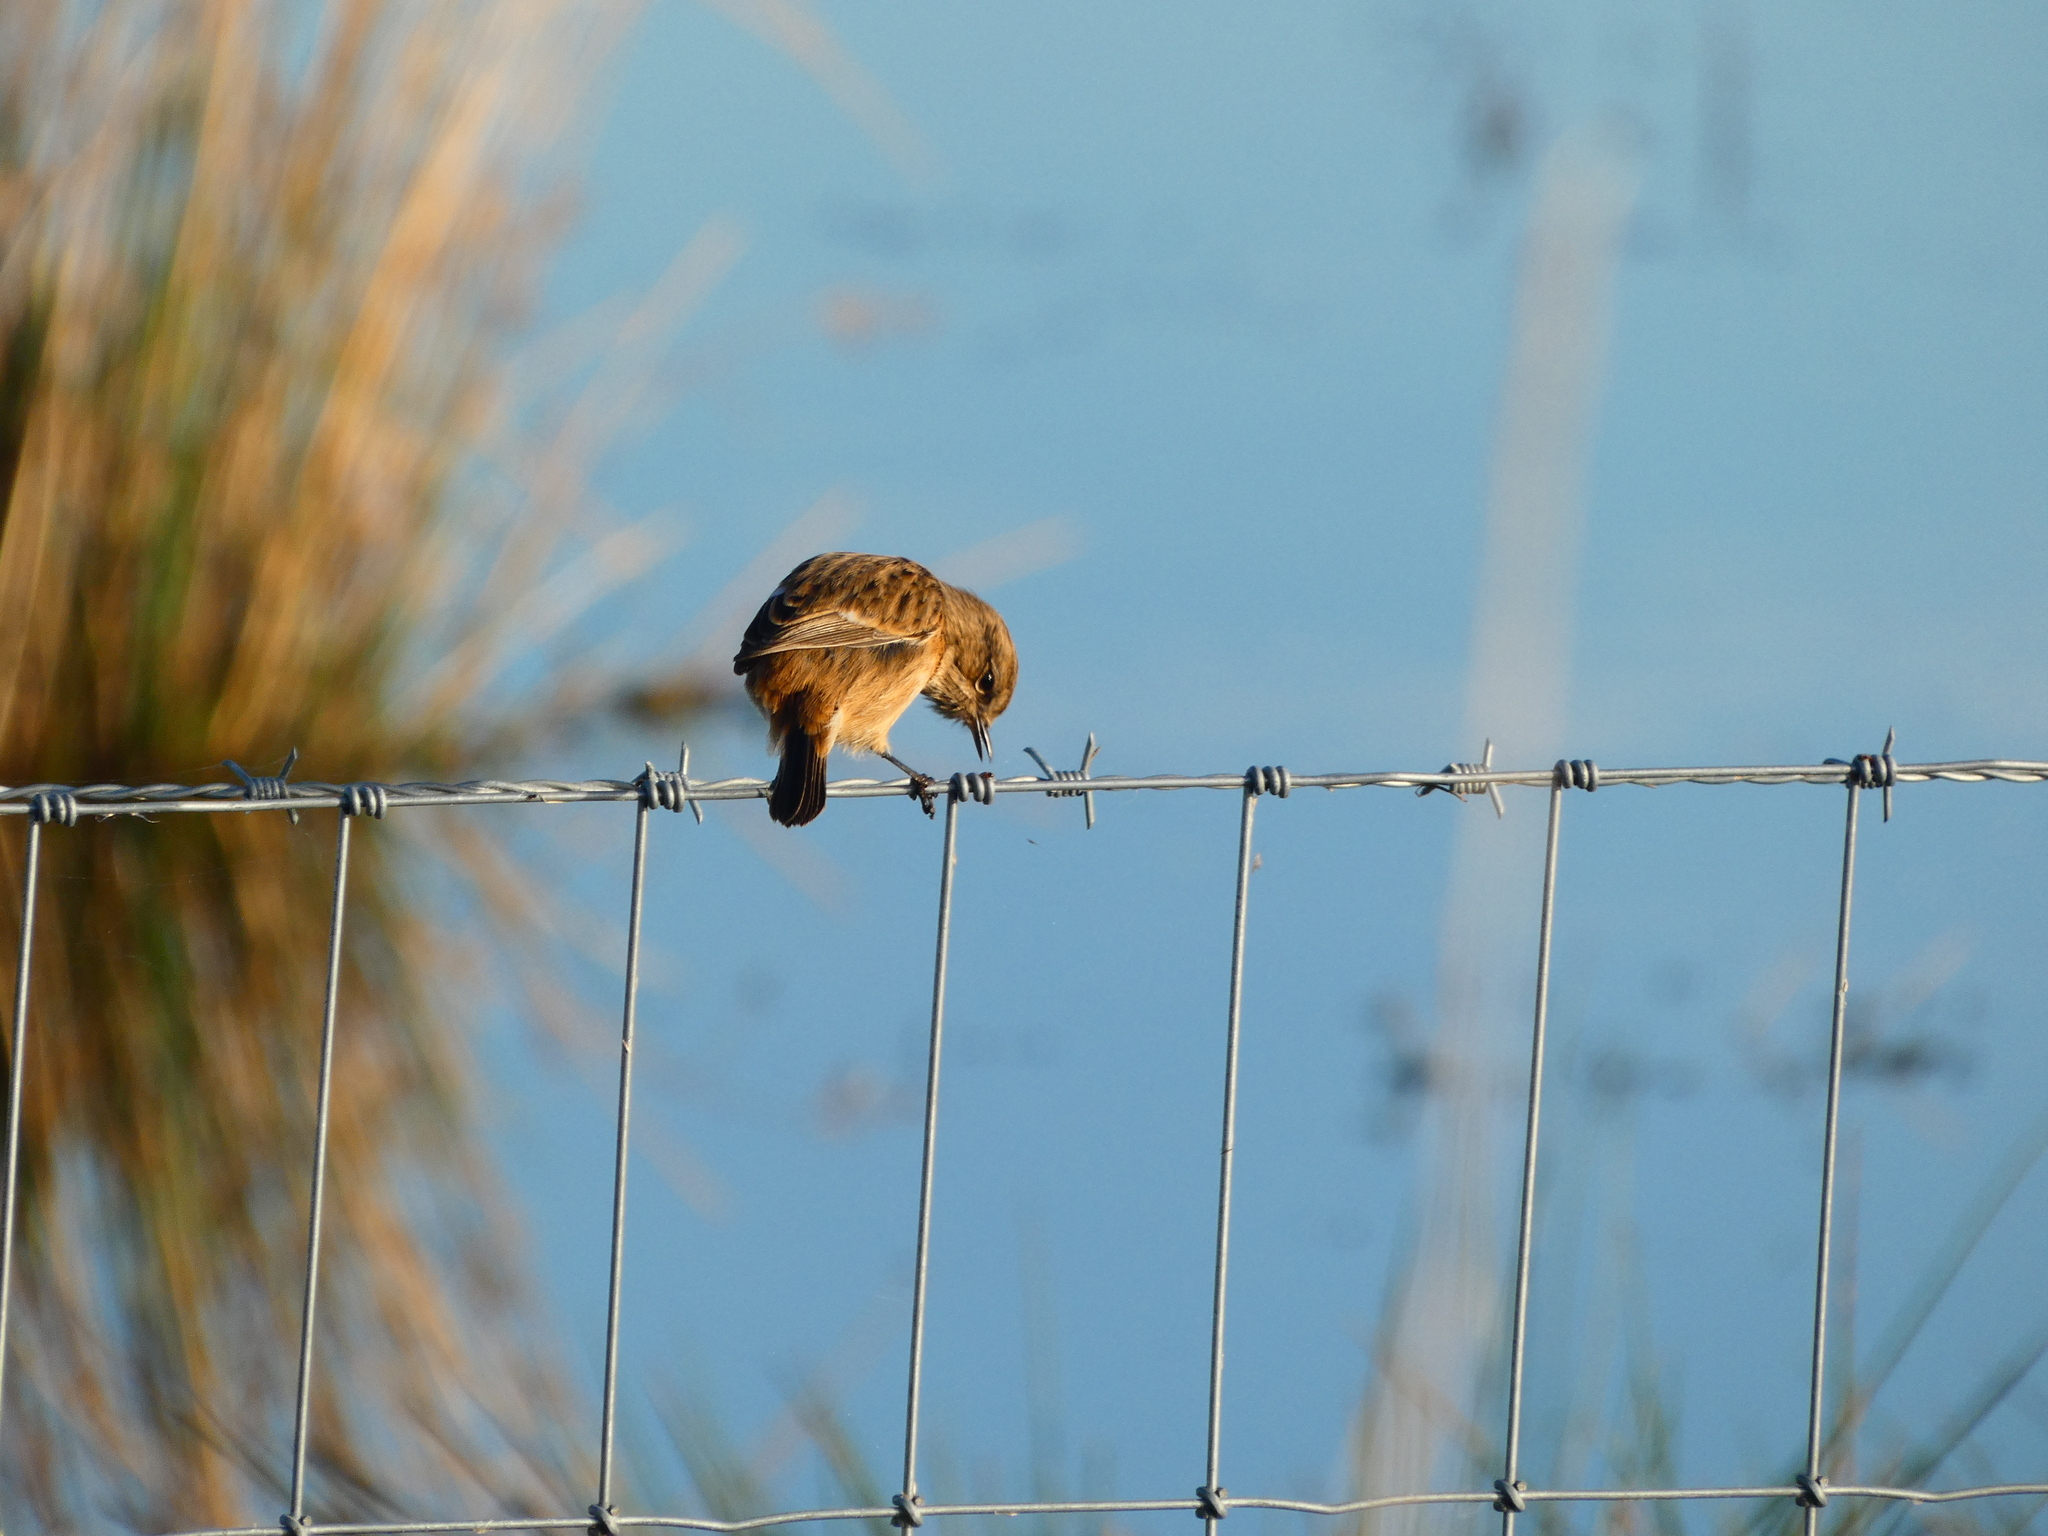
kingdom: Animalia
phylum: Chordata
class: Aves
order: Passeriformes
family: Muscicapidae
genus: Saxicola
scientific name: Saxicola rubicola
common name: European stonechat
